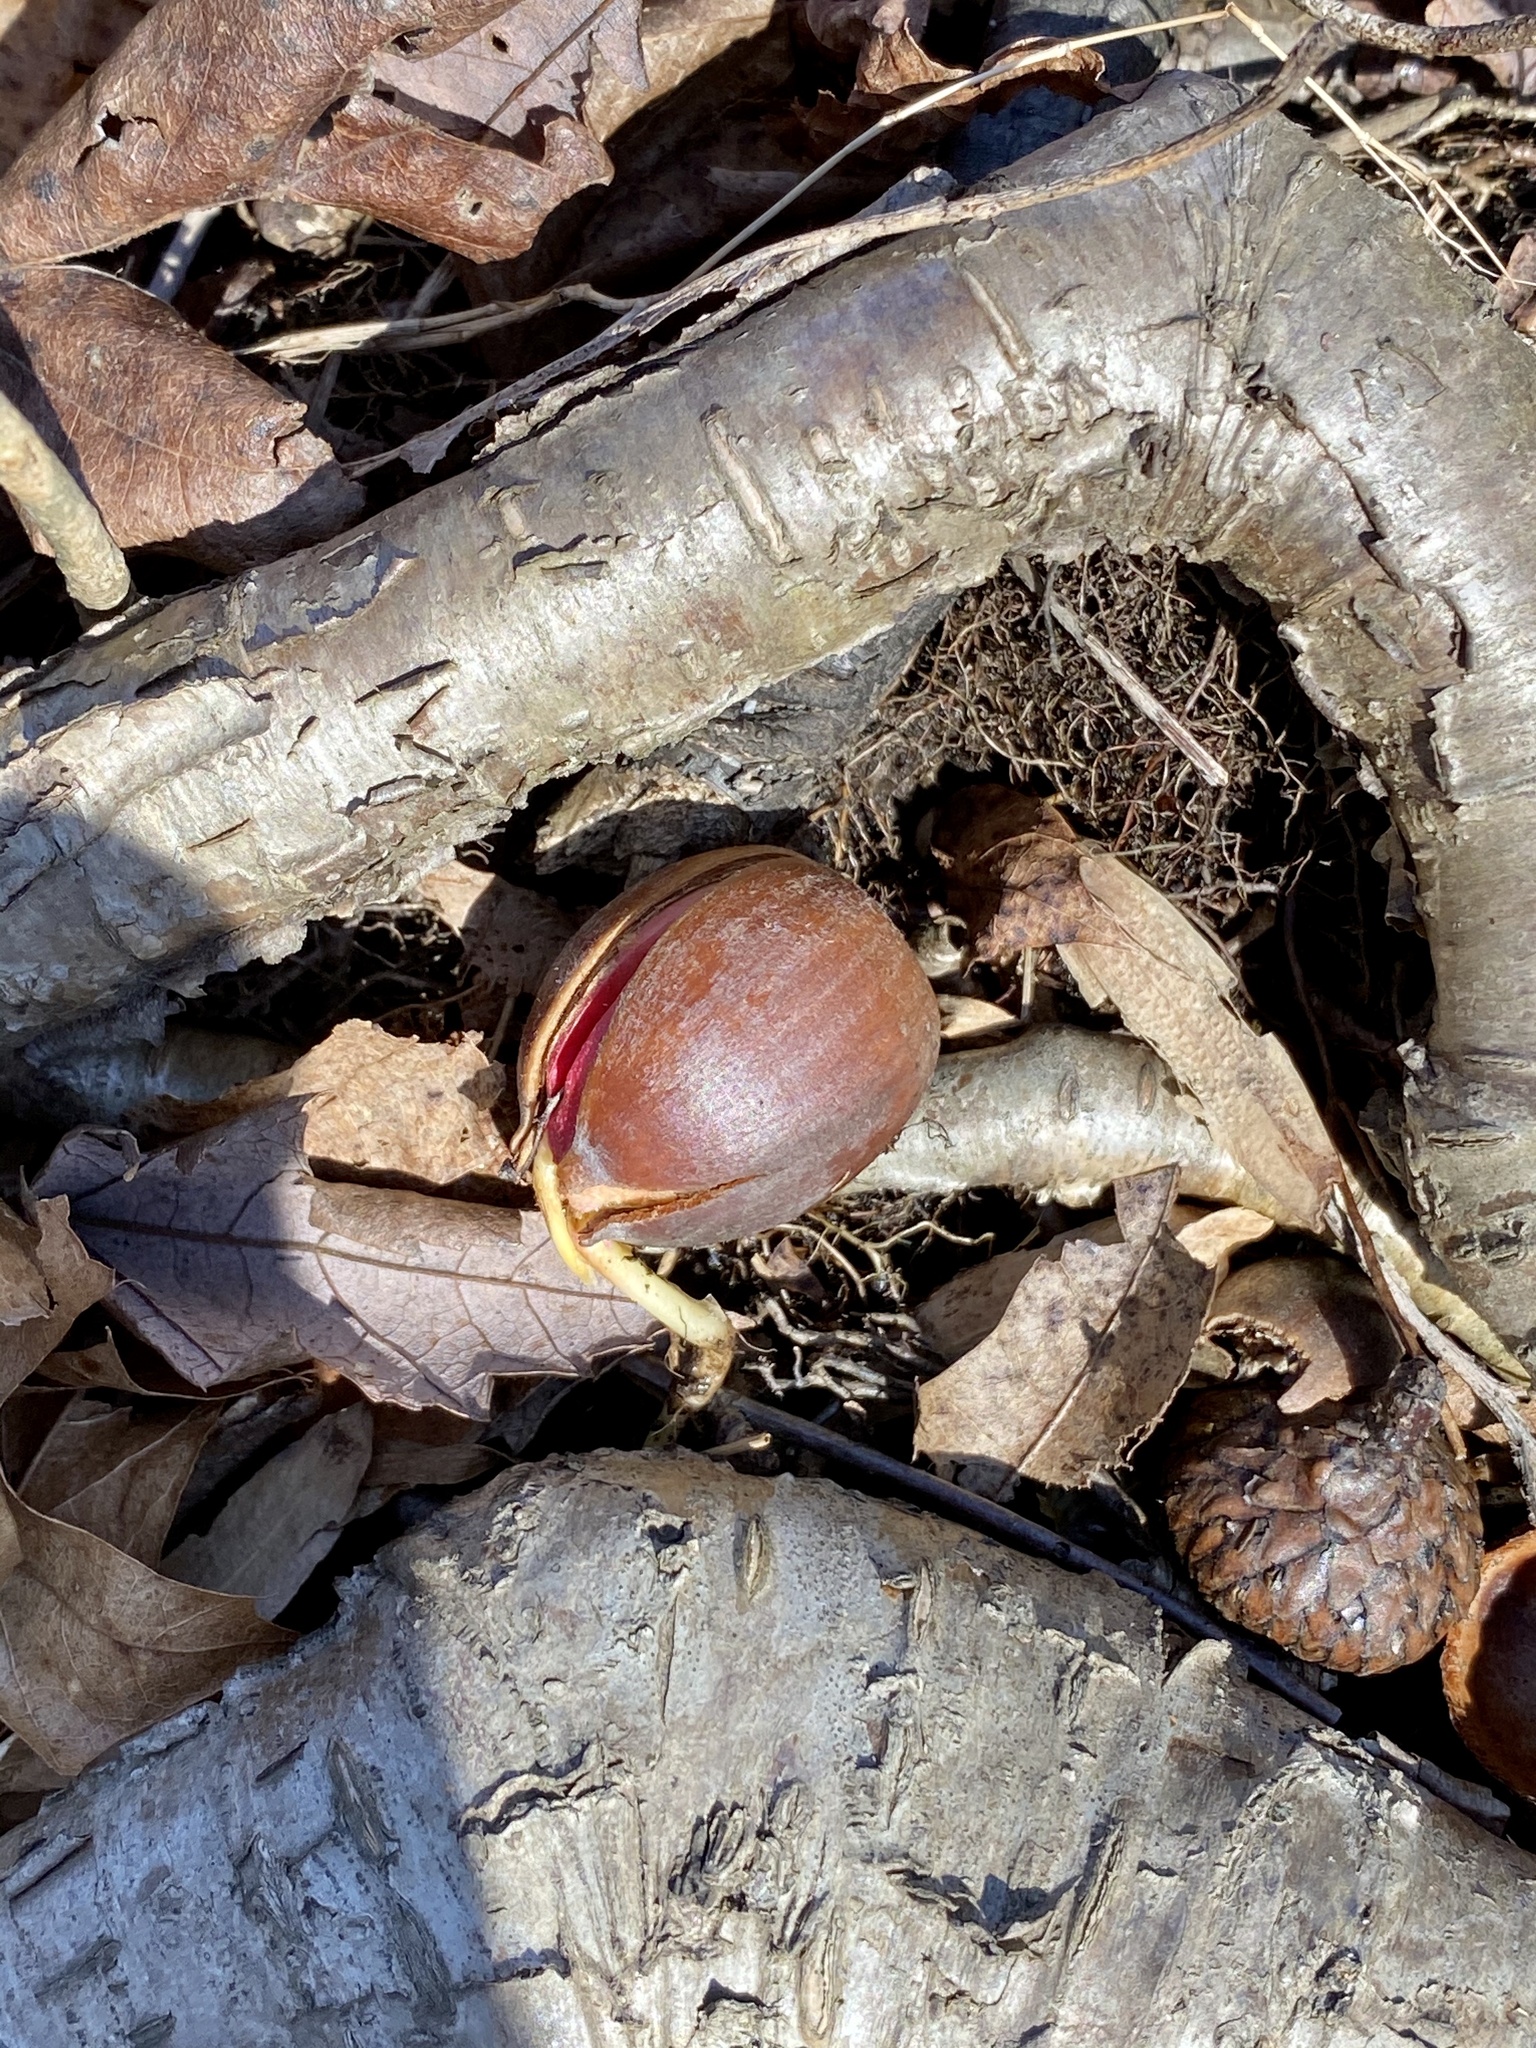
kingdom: Plantae
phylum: Tracheophyta
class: Magnoliopsida
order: Fagales
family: Fagaceae
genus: Quercus
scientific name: Quercus rubra
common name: Red oak
